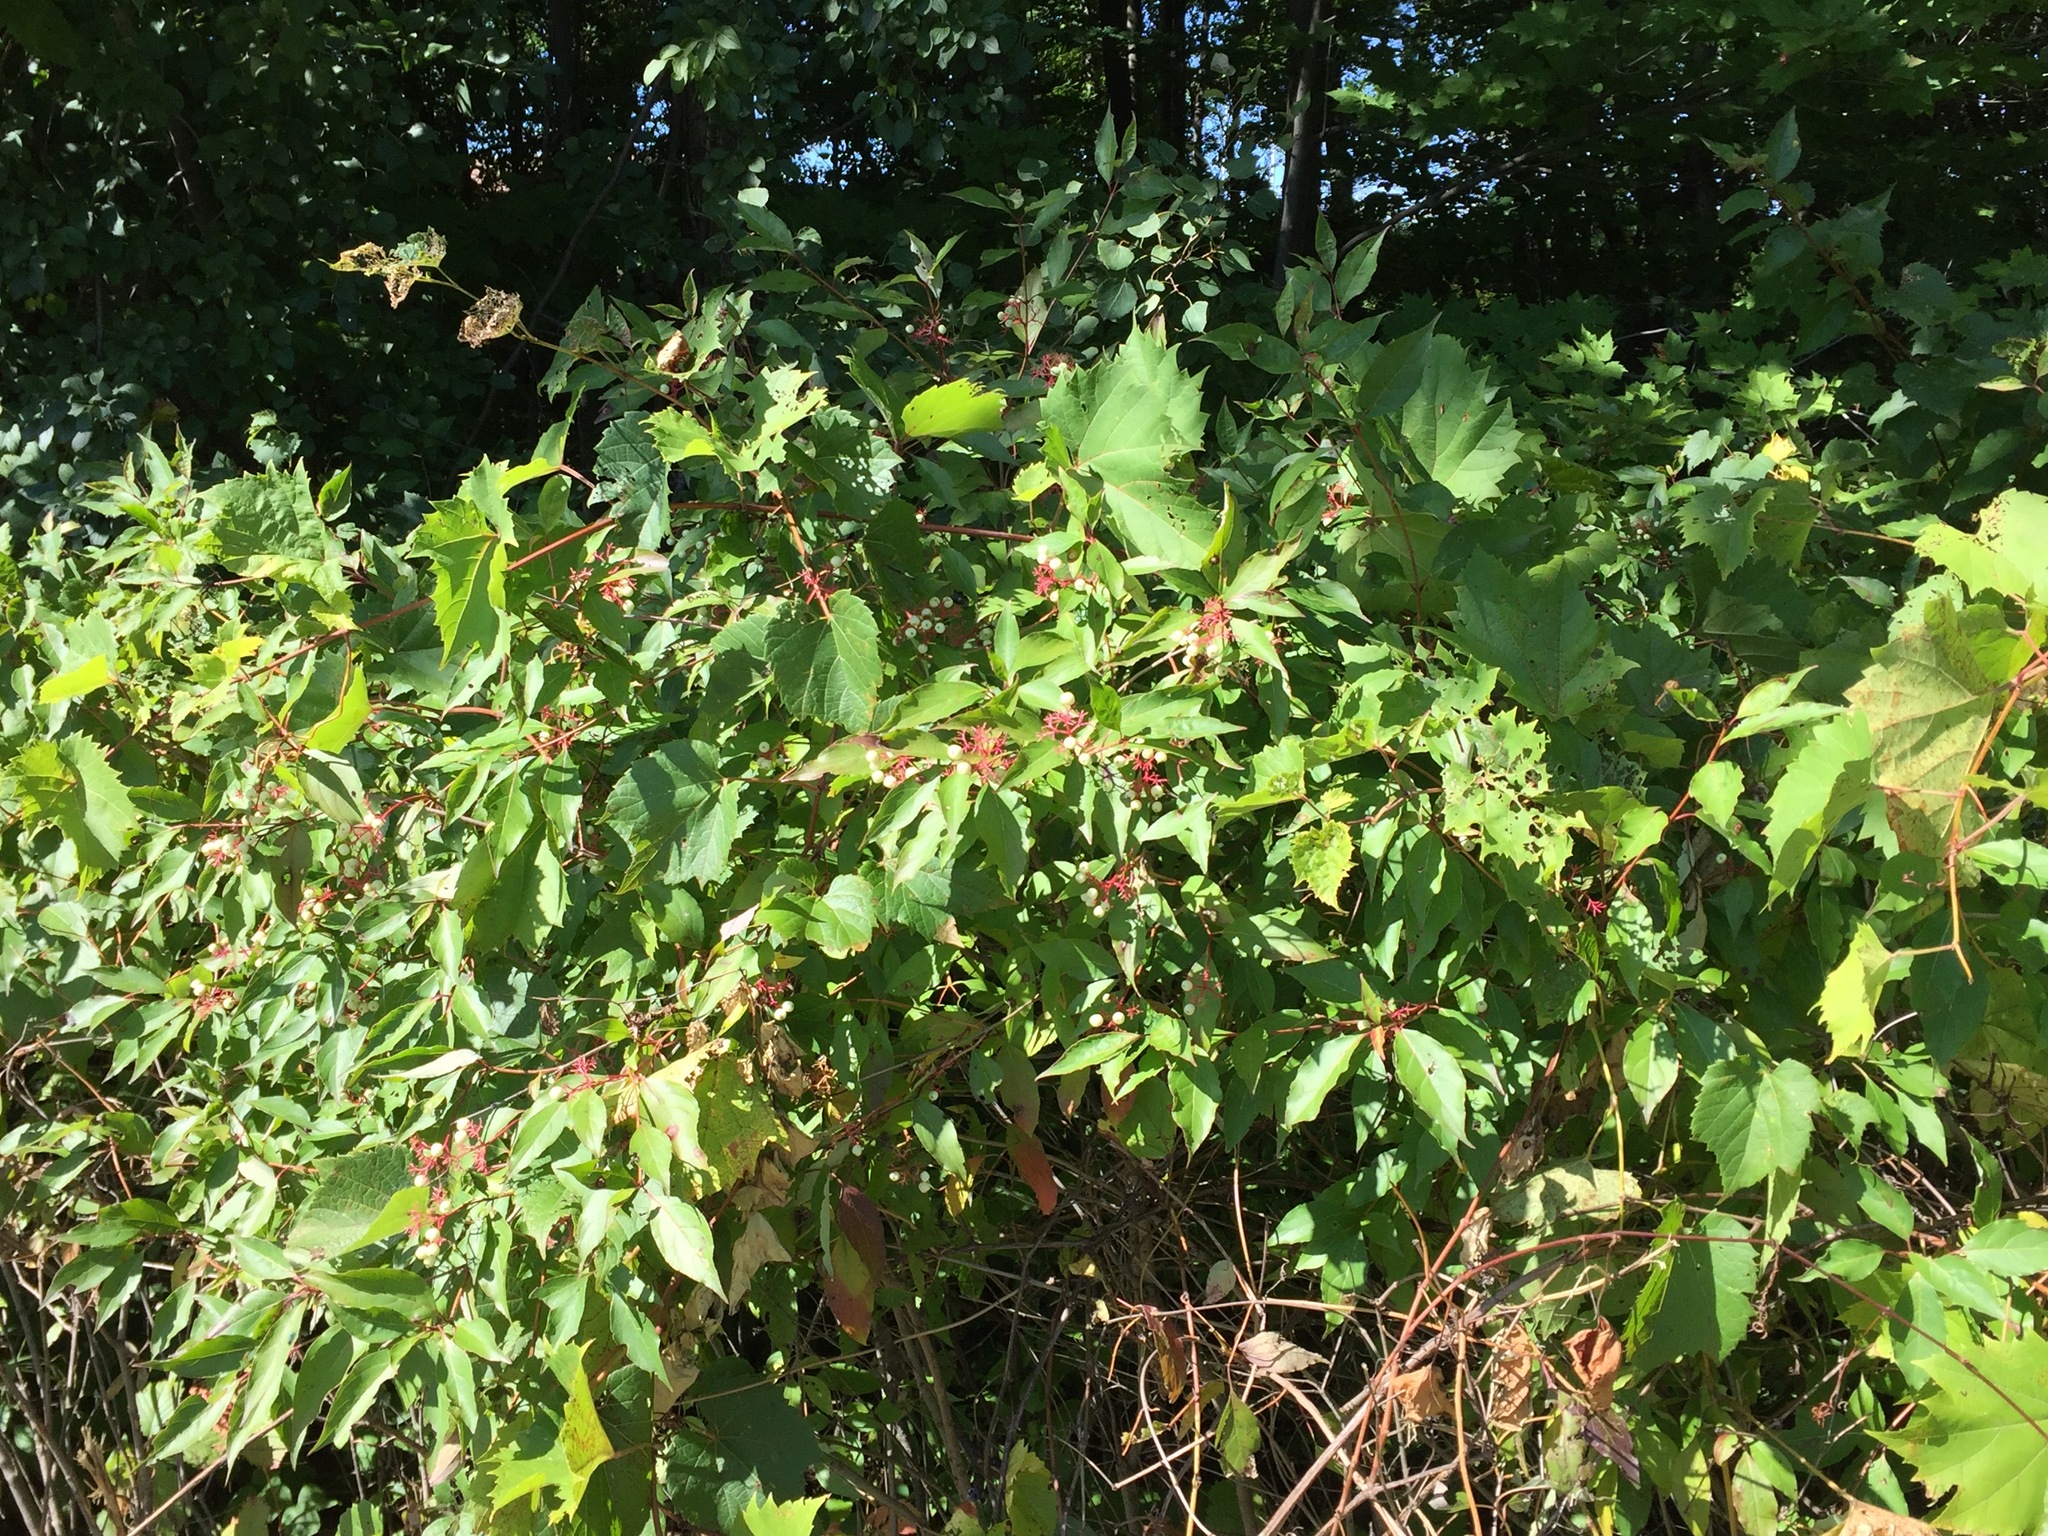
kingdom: Plantae
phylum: Tracheophyta
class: Magnoliopsida
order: Cornales
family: Cornaceae
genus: Cornus
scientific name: Cornus racemosa
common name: Panicled dogwood
